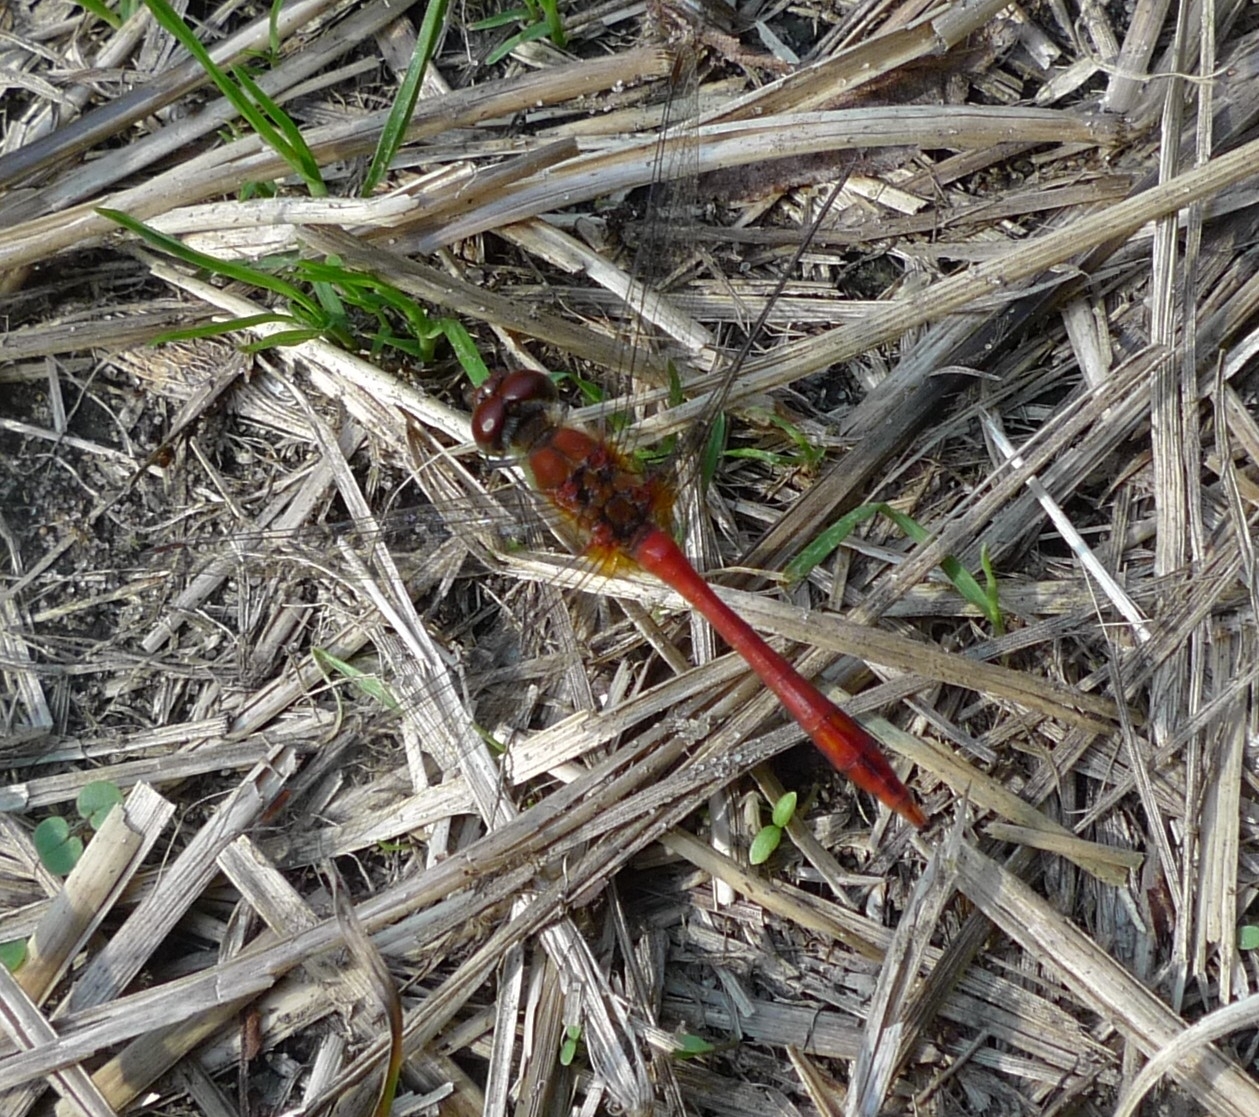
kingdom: Animalia
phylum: Arthropoda
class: Insecta
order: Odonata
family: Libellulidae
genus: Sympetrum
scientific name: Sympetrum sanguineum
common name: Ruddy darter
